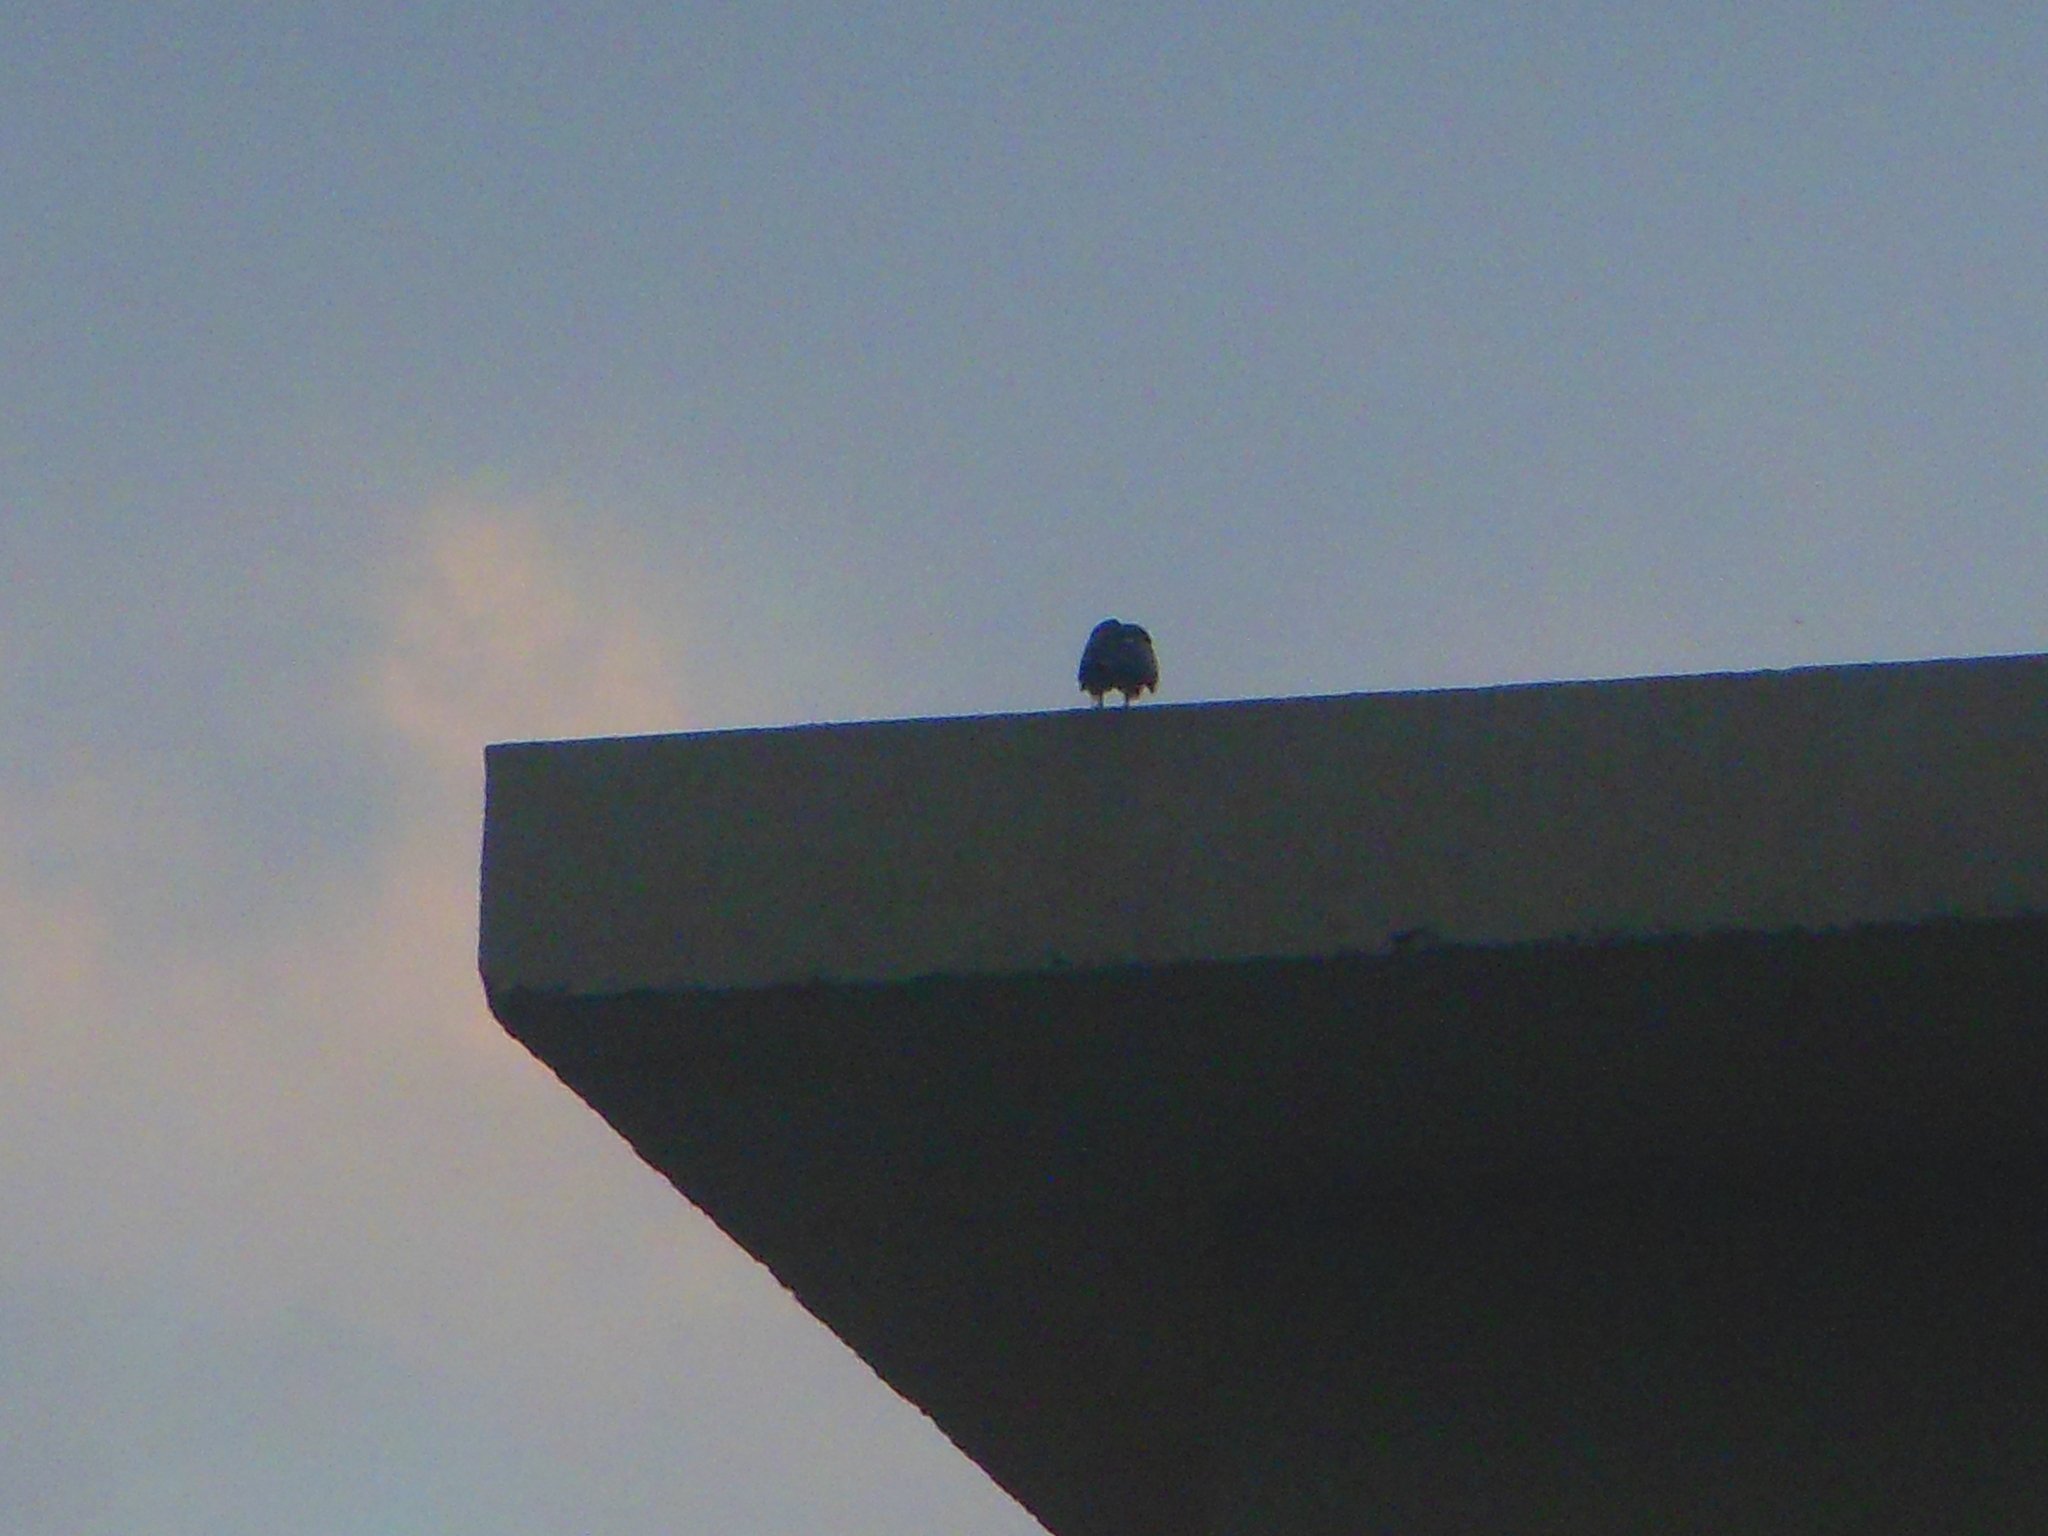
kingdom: Animalia
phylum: Chordata
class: Aves
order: Accipitriformes
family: Accipitridae
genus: Milvus
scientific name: Milvus migrans
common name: Black kite
